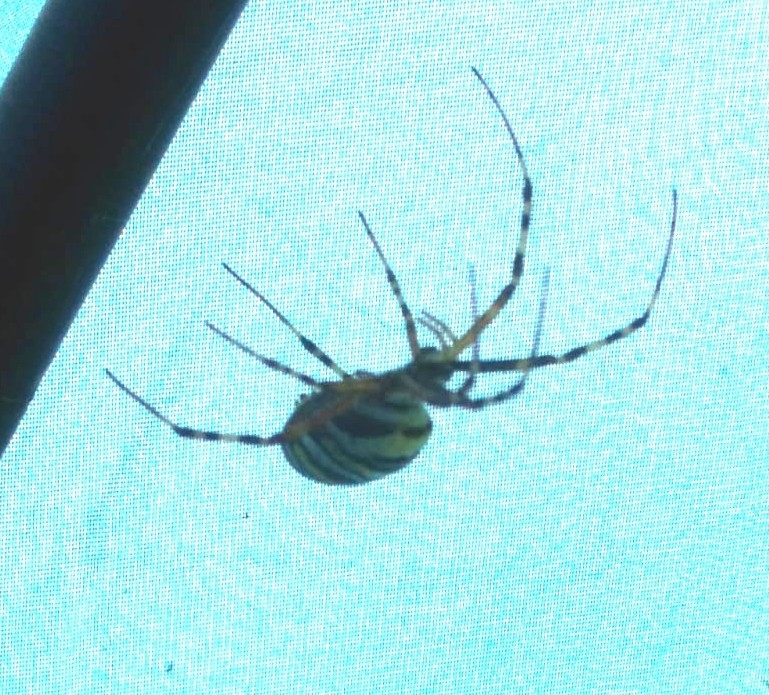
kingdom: Animalia
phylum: Arthropoda
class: Arachnida
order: Araneae
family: Araneidae
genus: Argiope
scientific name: Argiope bruennichi
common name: Wasp spider
